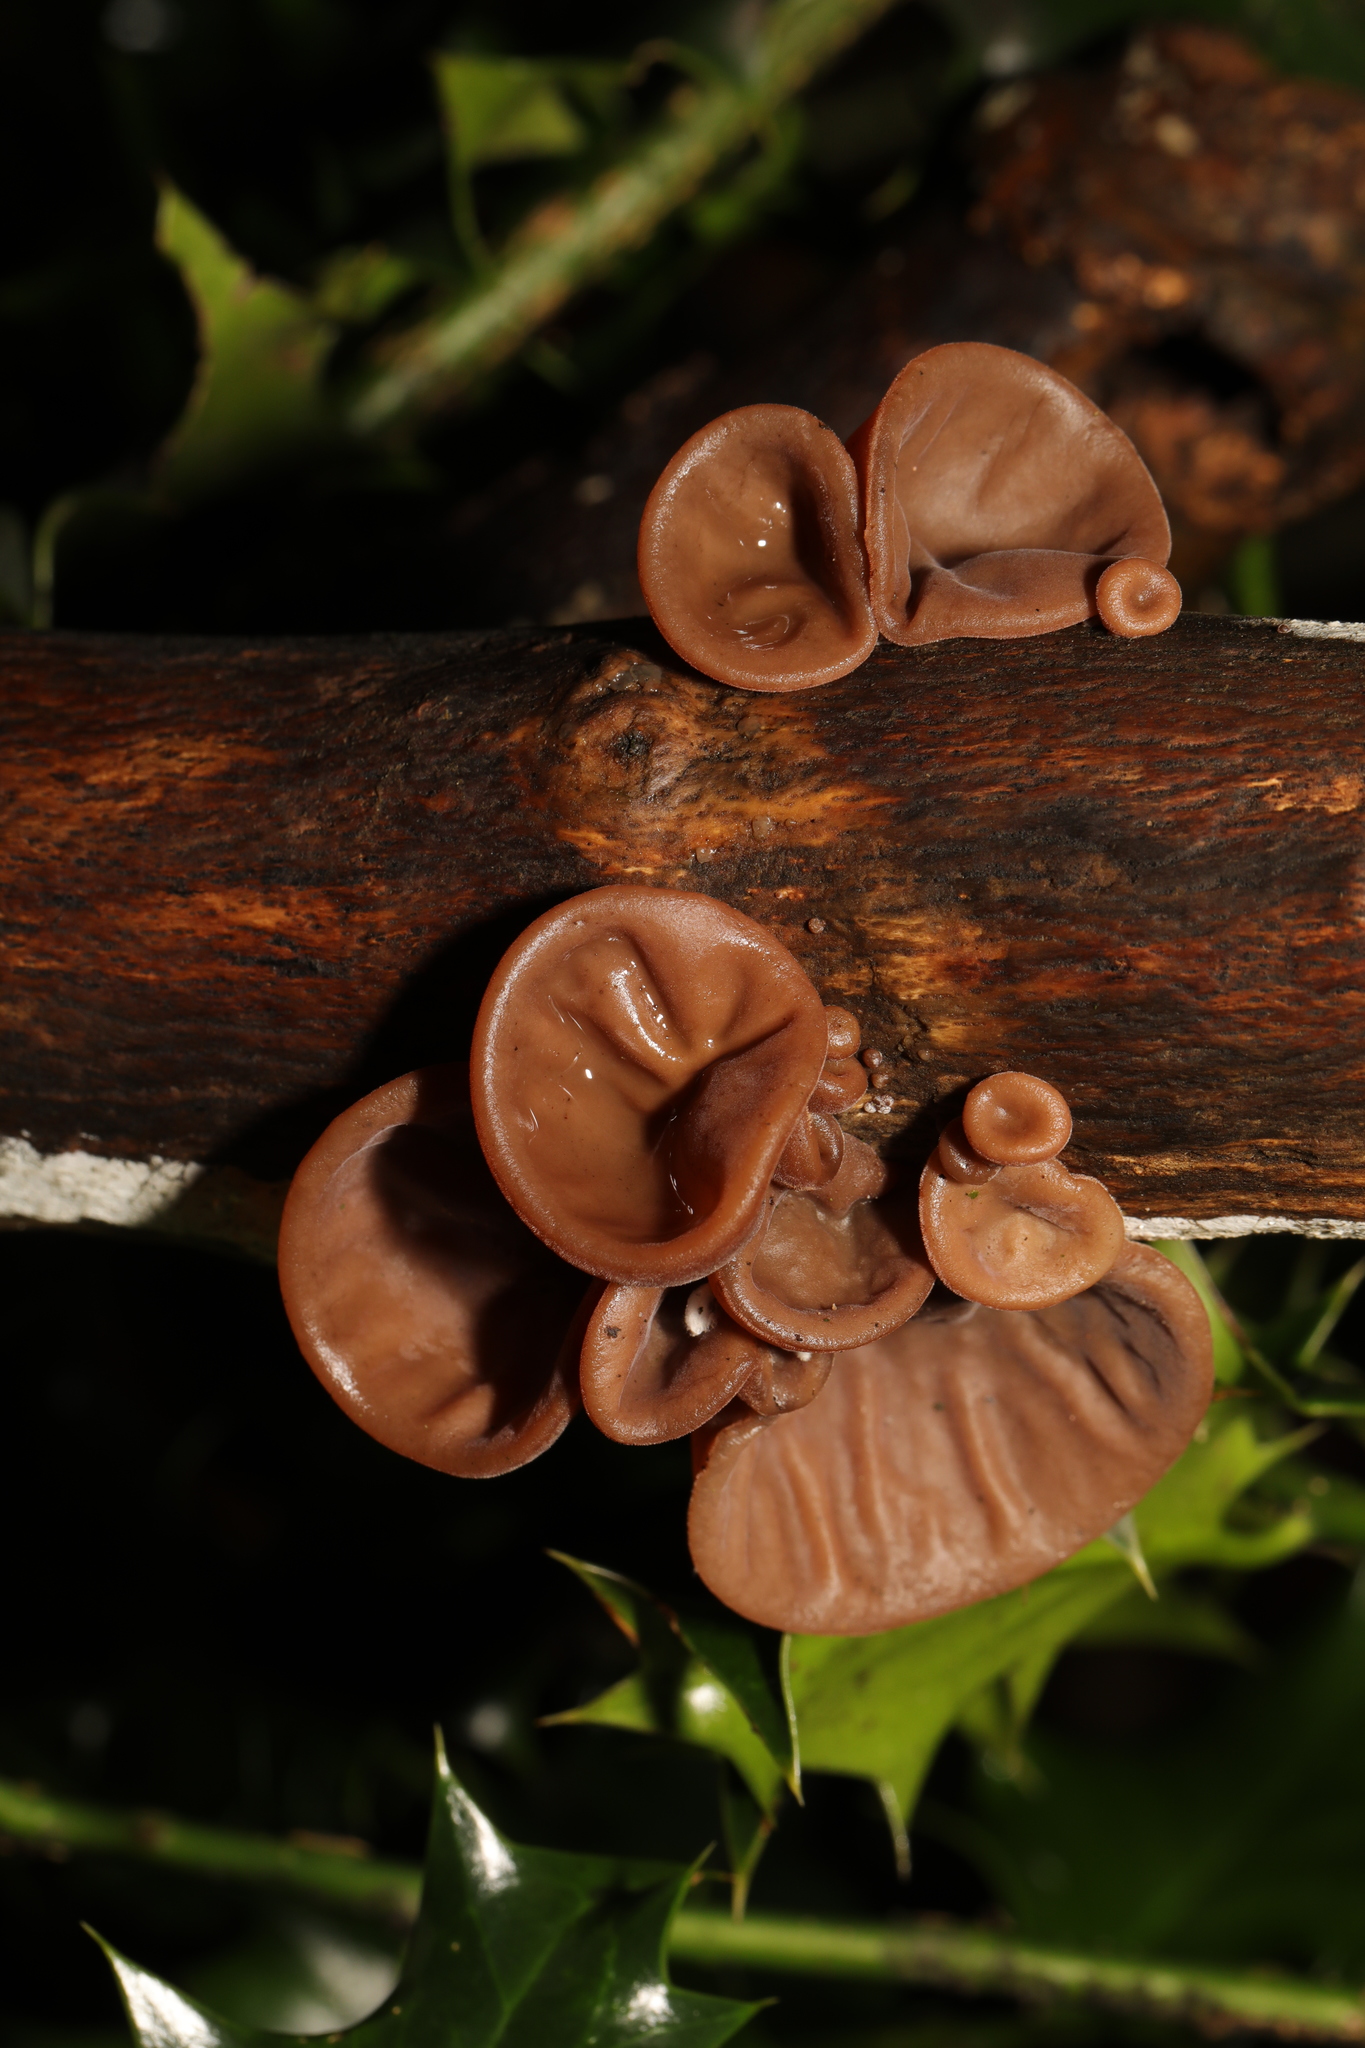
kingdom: Fungi
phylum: Basidiomycota
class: Agaricomycetes
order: Auriculariales
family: Auriculariaceae
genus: Auricularia
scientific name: Auricularia auricula-judae
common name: Jelly ear
